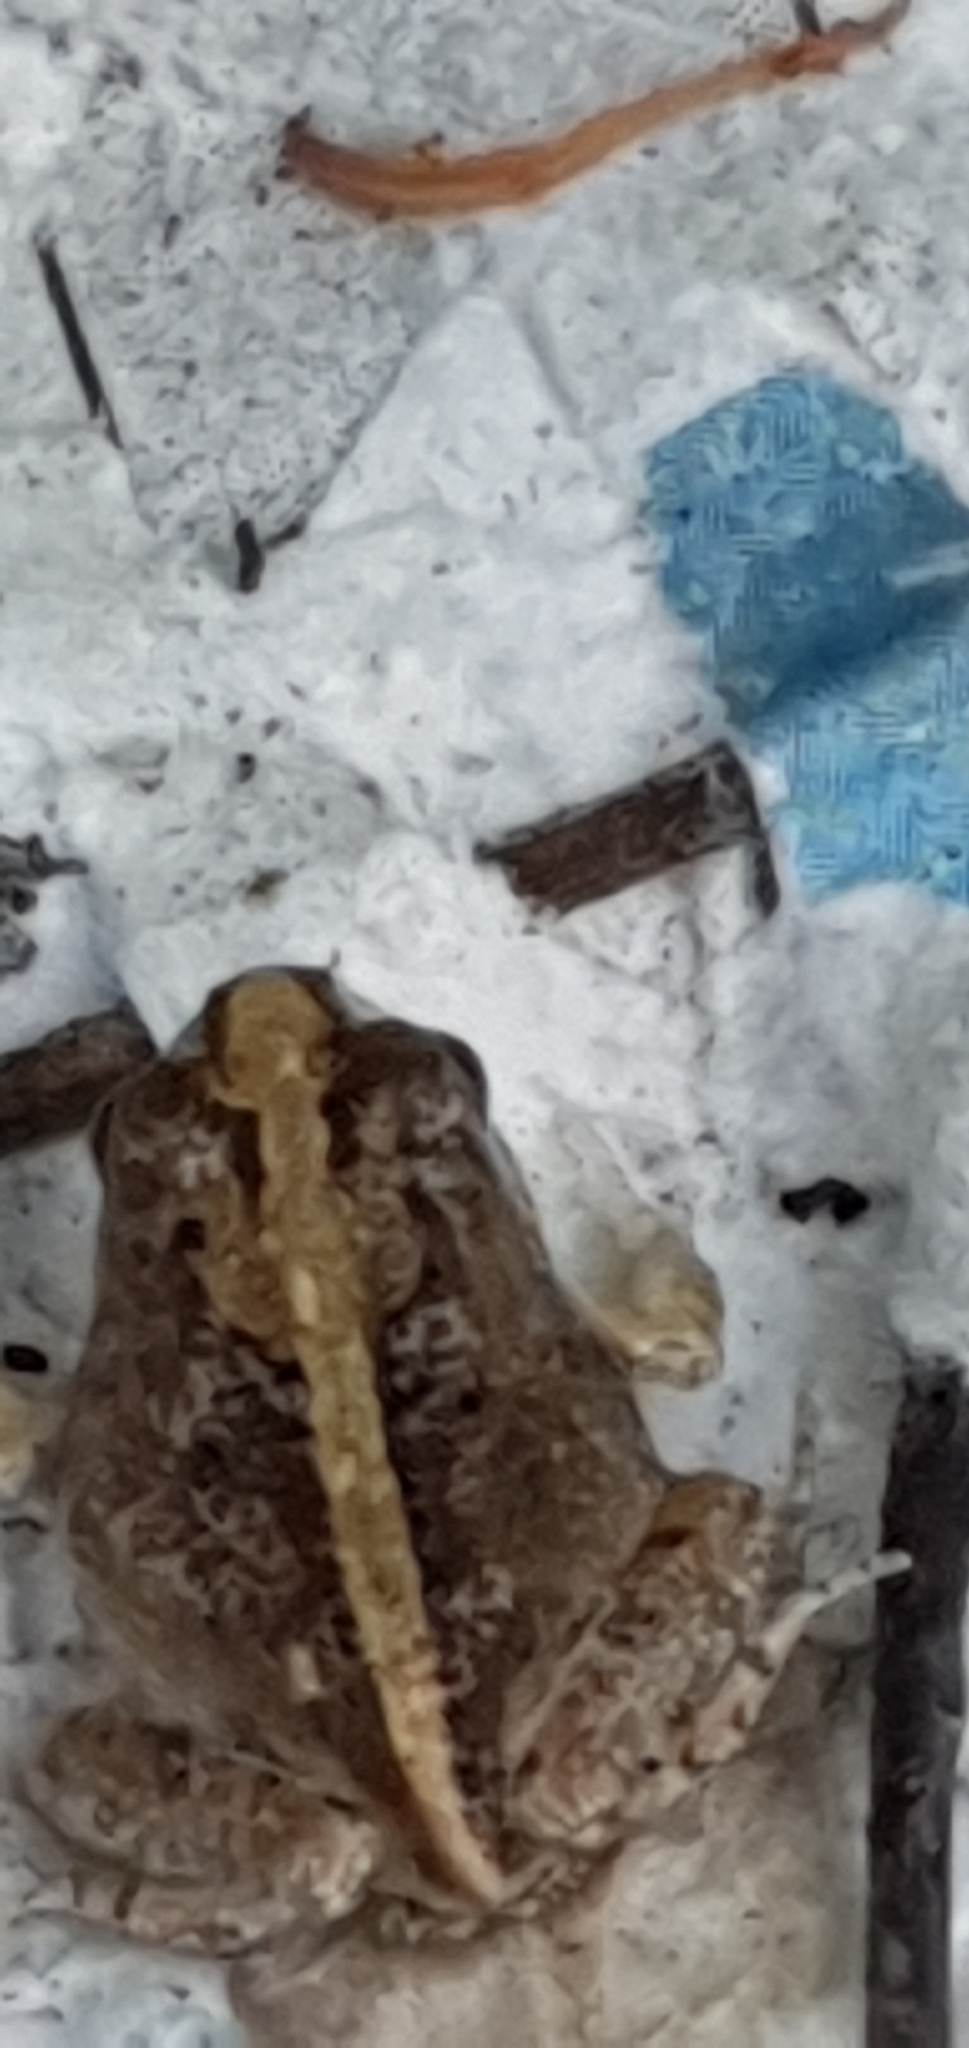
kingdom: Animalia
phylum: Chordata
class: Amphibia
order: Anura
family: Limnodynastidae
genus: Platyplectrum
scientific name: Platyplectrum ornatum
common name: Ornate burrowing frog
